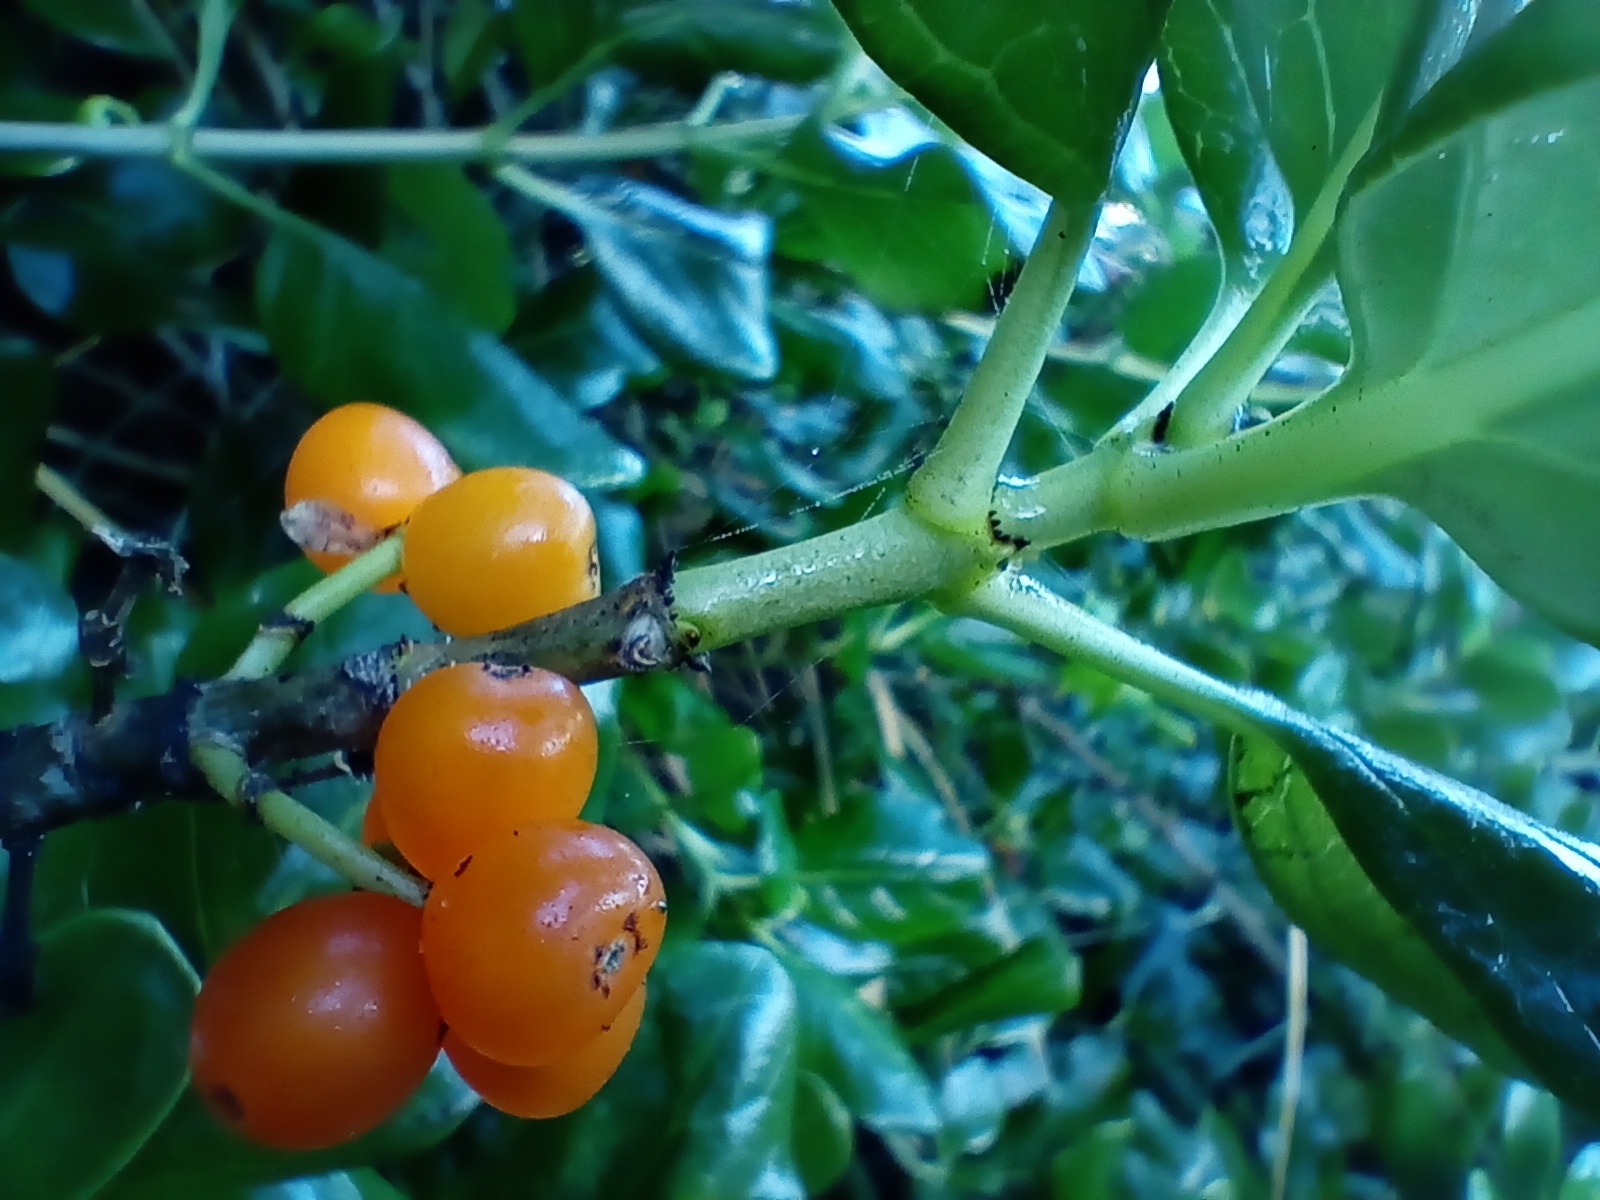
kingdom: Plantae
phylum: Tracheophyta
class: Magnoliopsida
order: Gentianales
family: Rubiaceae
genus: Coprosma
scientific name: Coprosma repens
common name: Tree bedstraw
